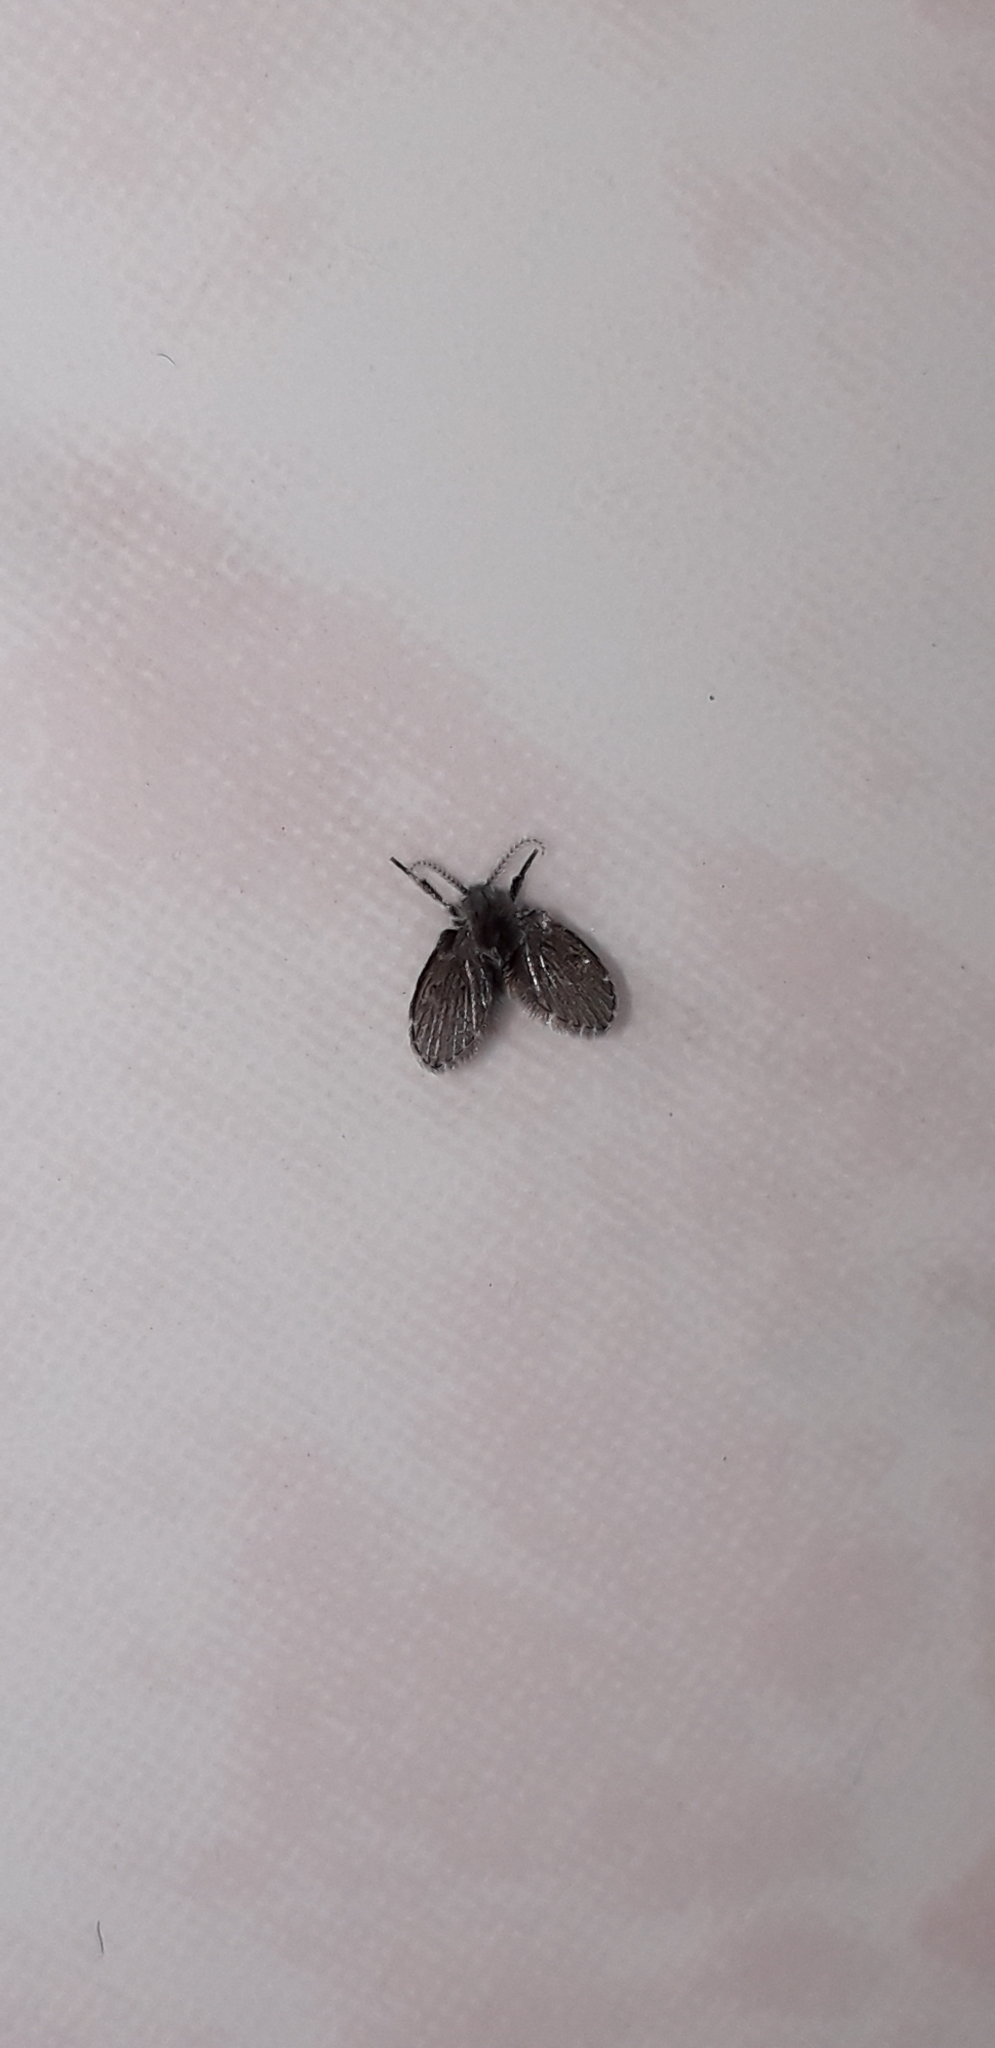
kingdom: Animalia
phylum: Arthropoda
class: Insecta
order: Diptera
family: Psychodidae
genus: Clogmia
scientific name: Clogmia albipunctatus
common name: White-spotted moth fly
